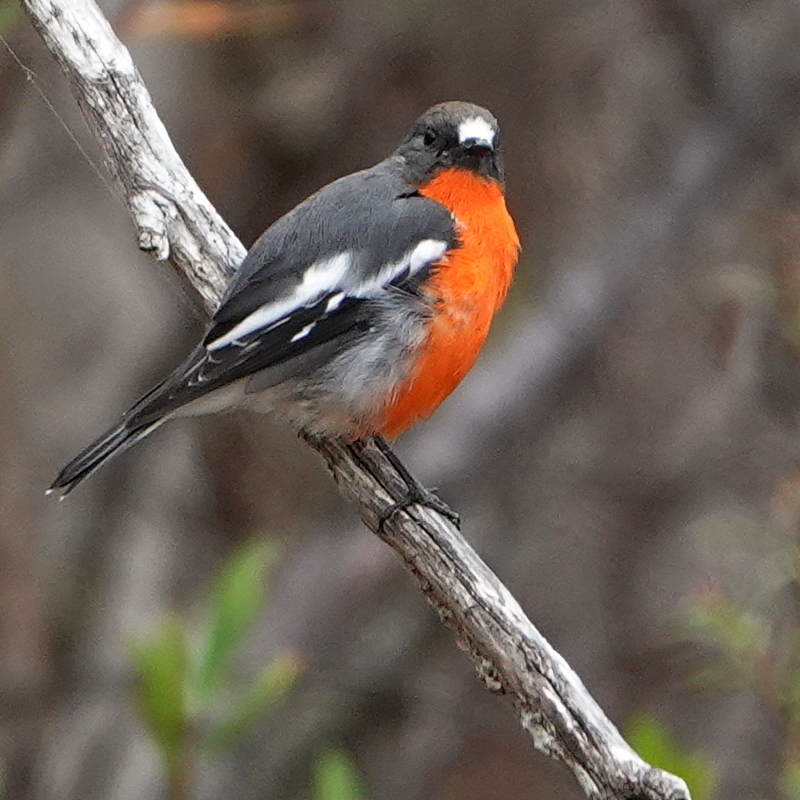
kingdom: Animalia
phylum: Chordata
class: Aves
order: Passeriformes
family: Petroicidae
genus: Petroica
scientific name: Petroica phoenicea
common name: Flame robin
